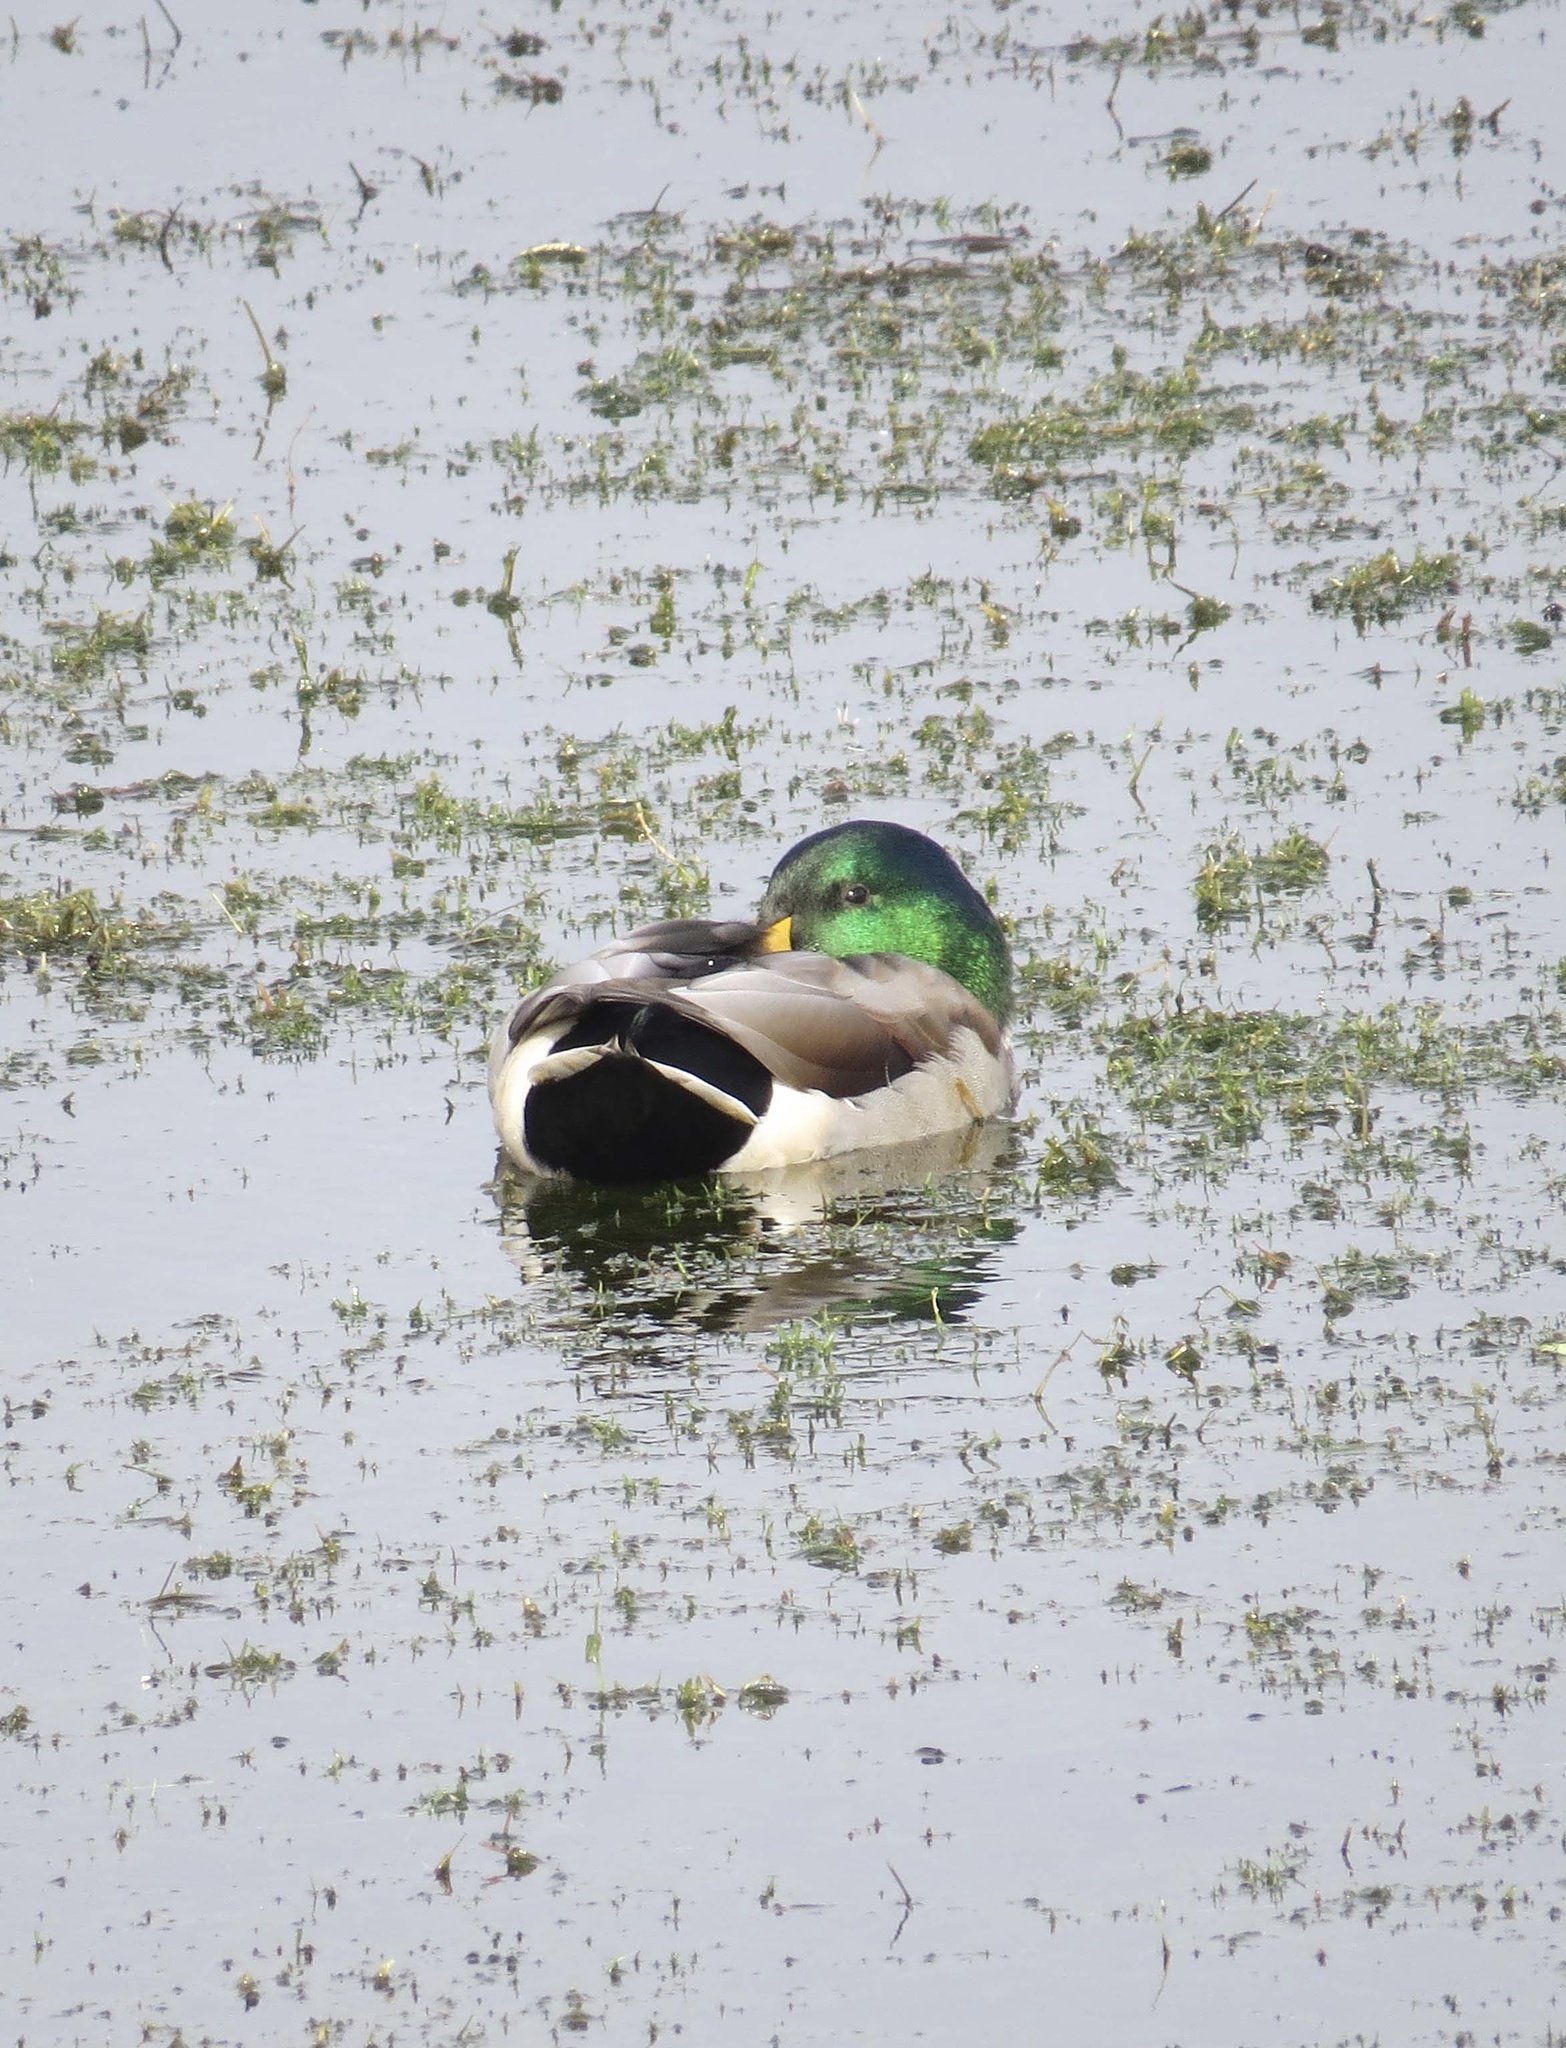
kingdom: Animalia
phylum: Chordata
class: Aves
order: Anseriformes
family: Anatidae
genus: Anas
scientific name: Anas platyrhynchos
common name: Mallard
